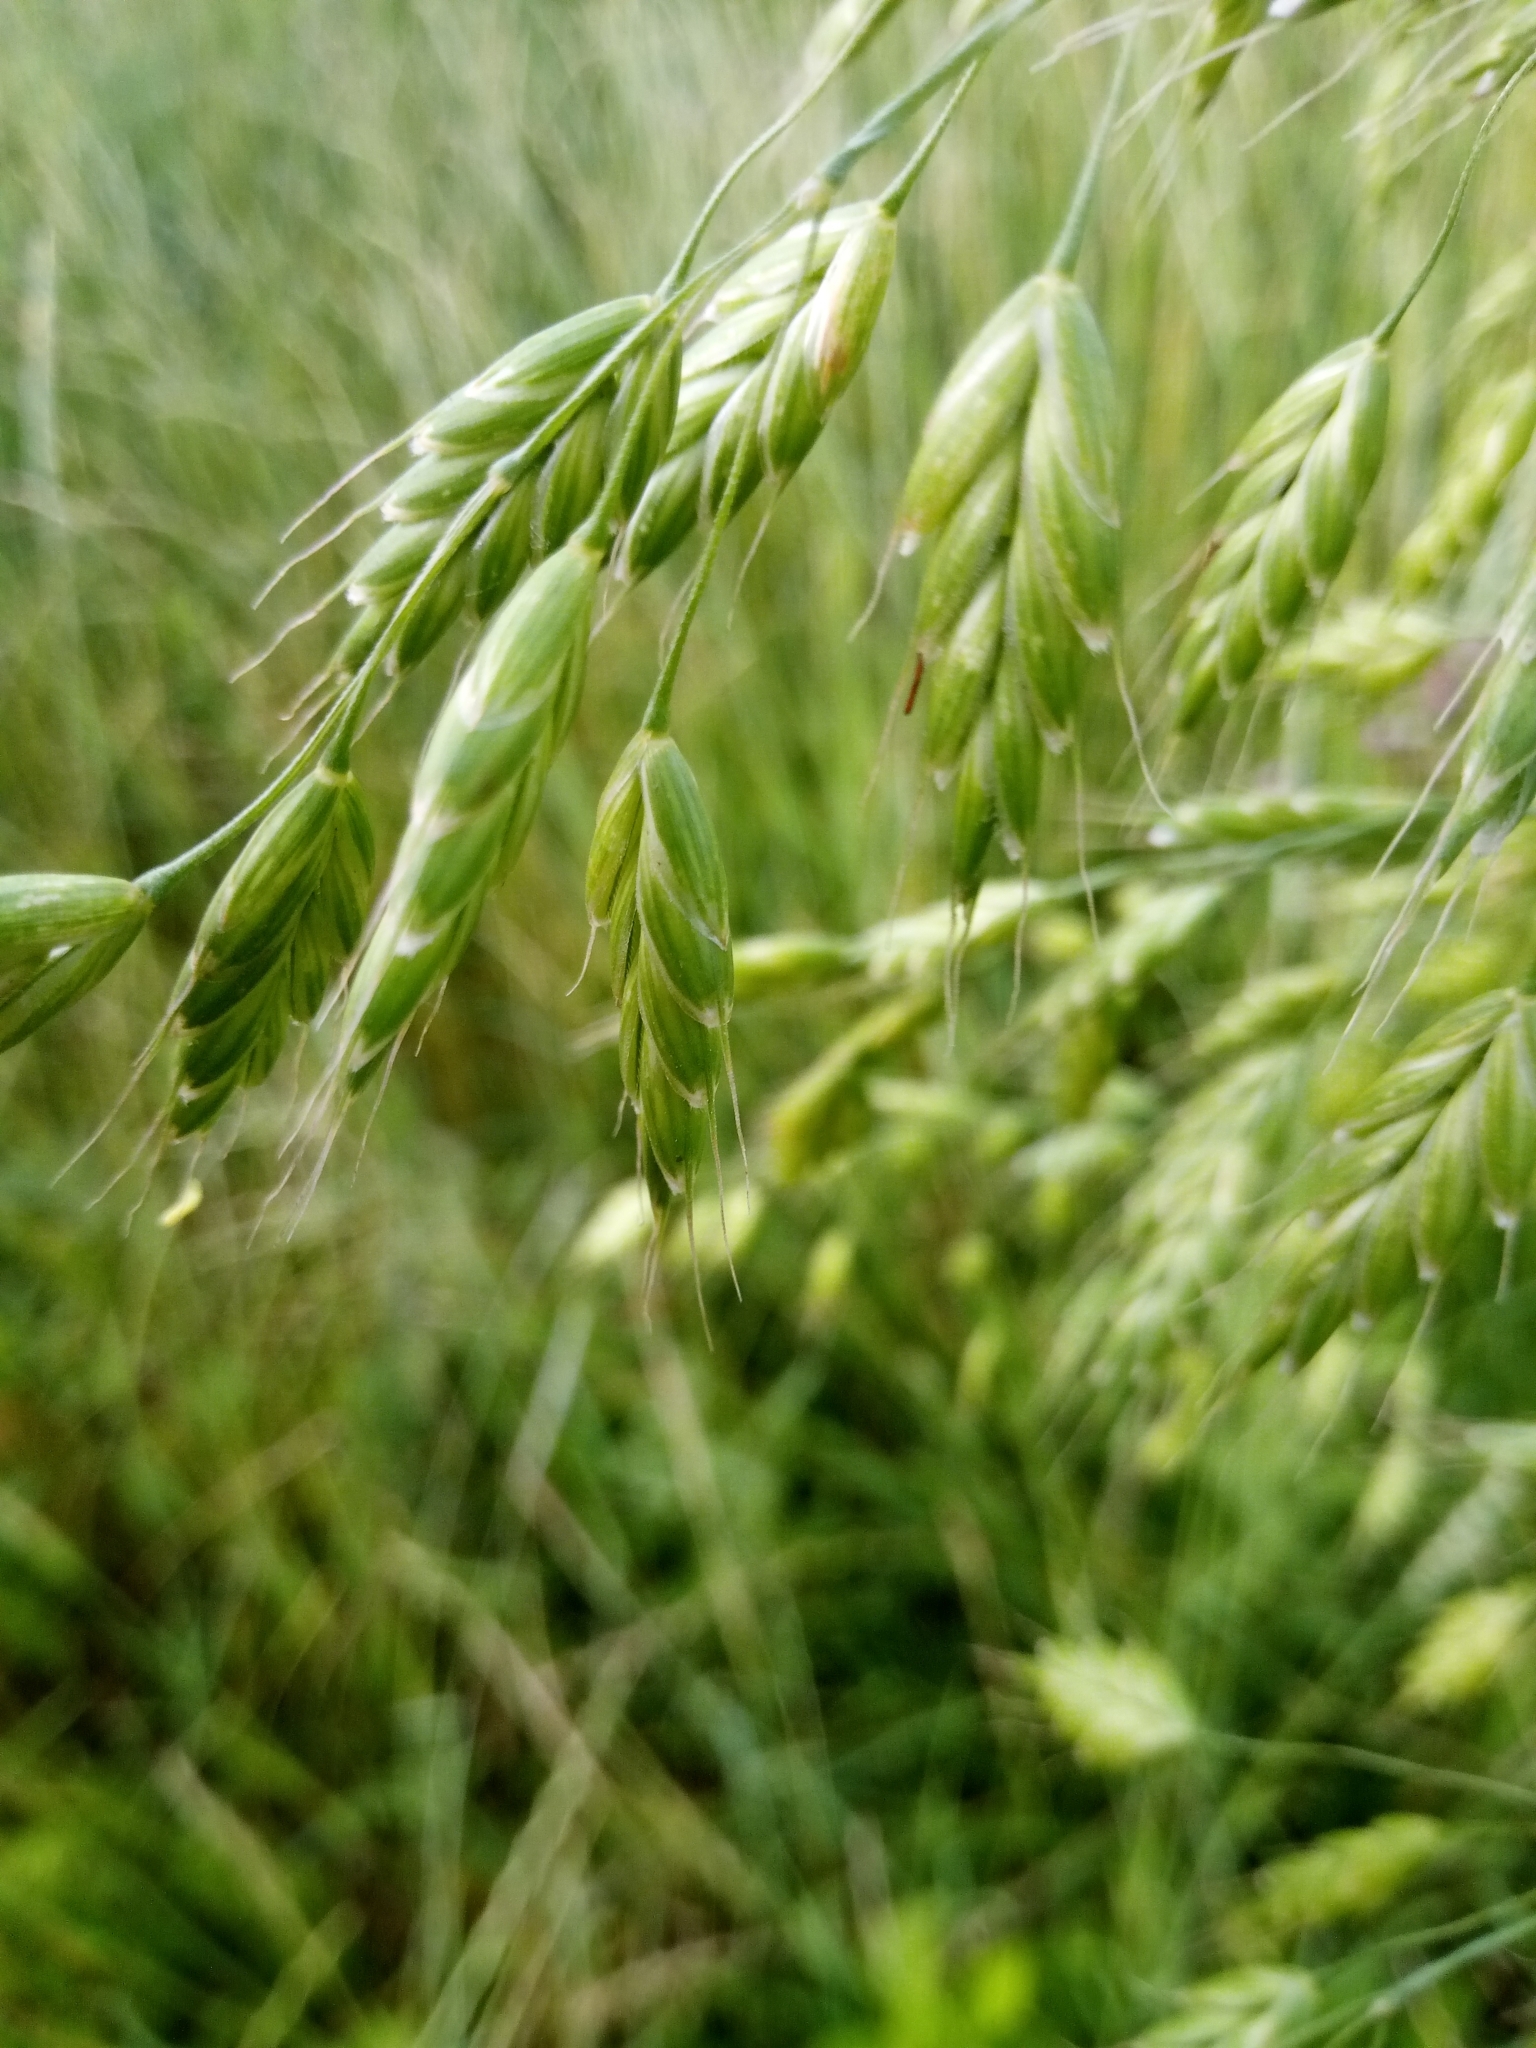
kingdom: Plantae
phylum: Tracheophyta
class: Liliopsida
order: Poales
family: Poaceae
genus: Bromus
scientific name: Bromus secalinus
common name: Rye brome
